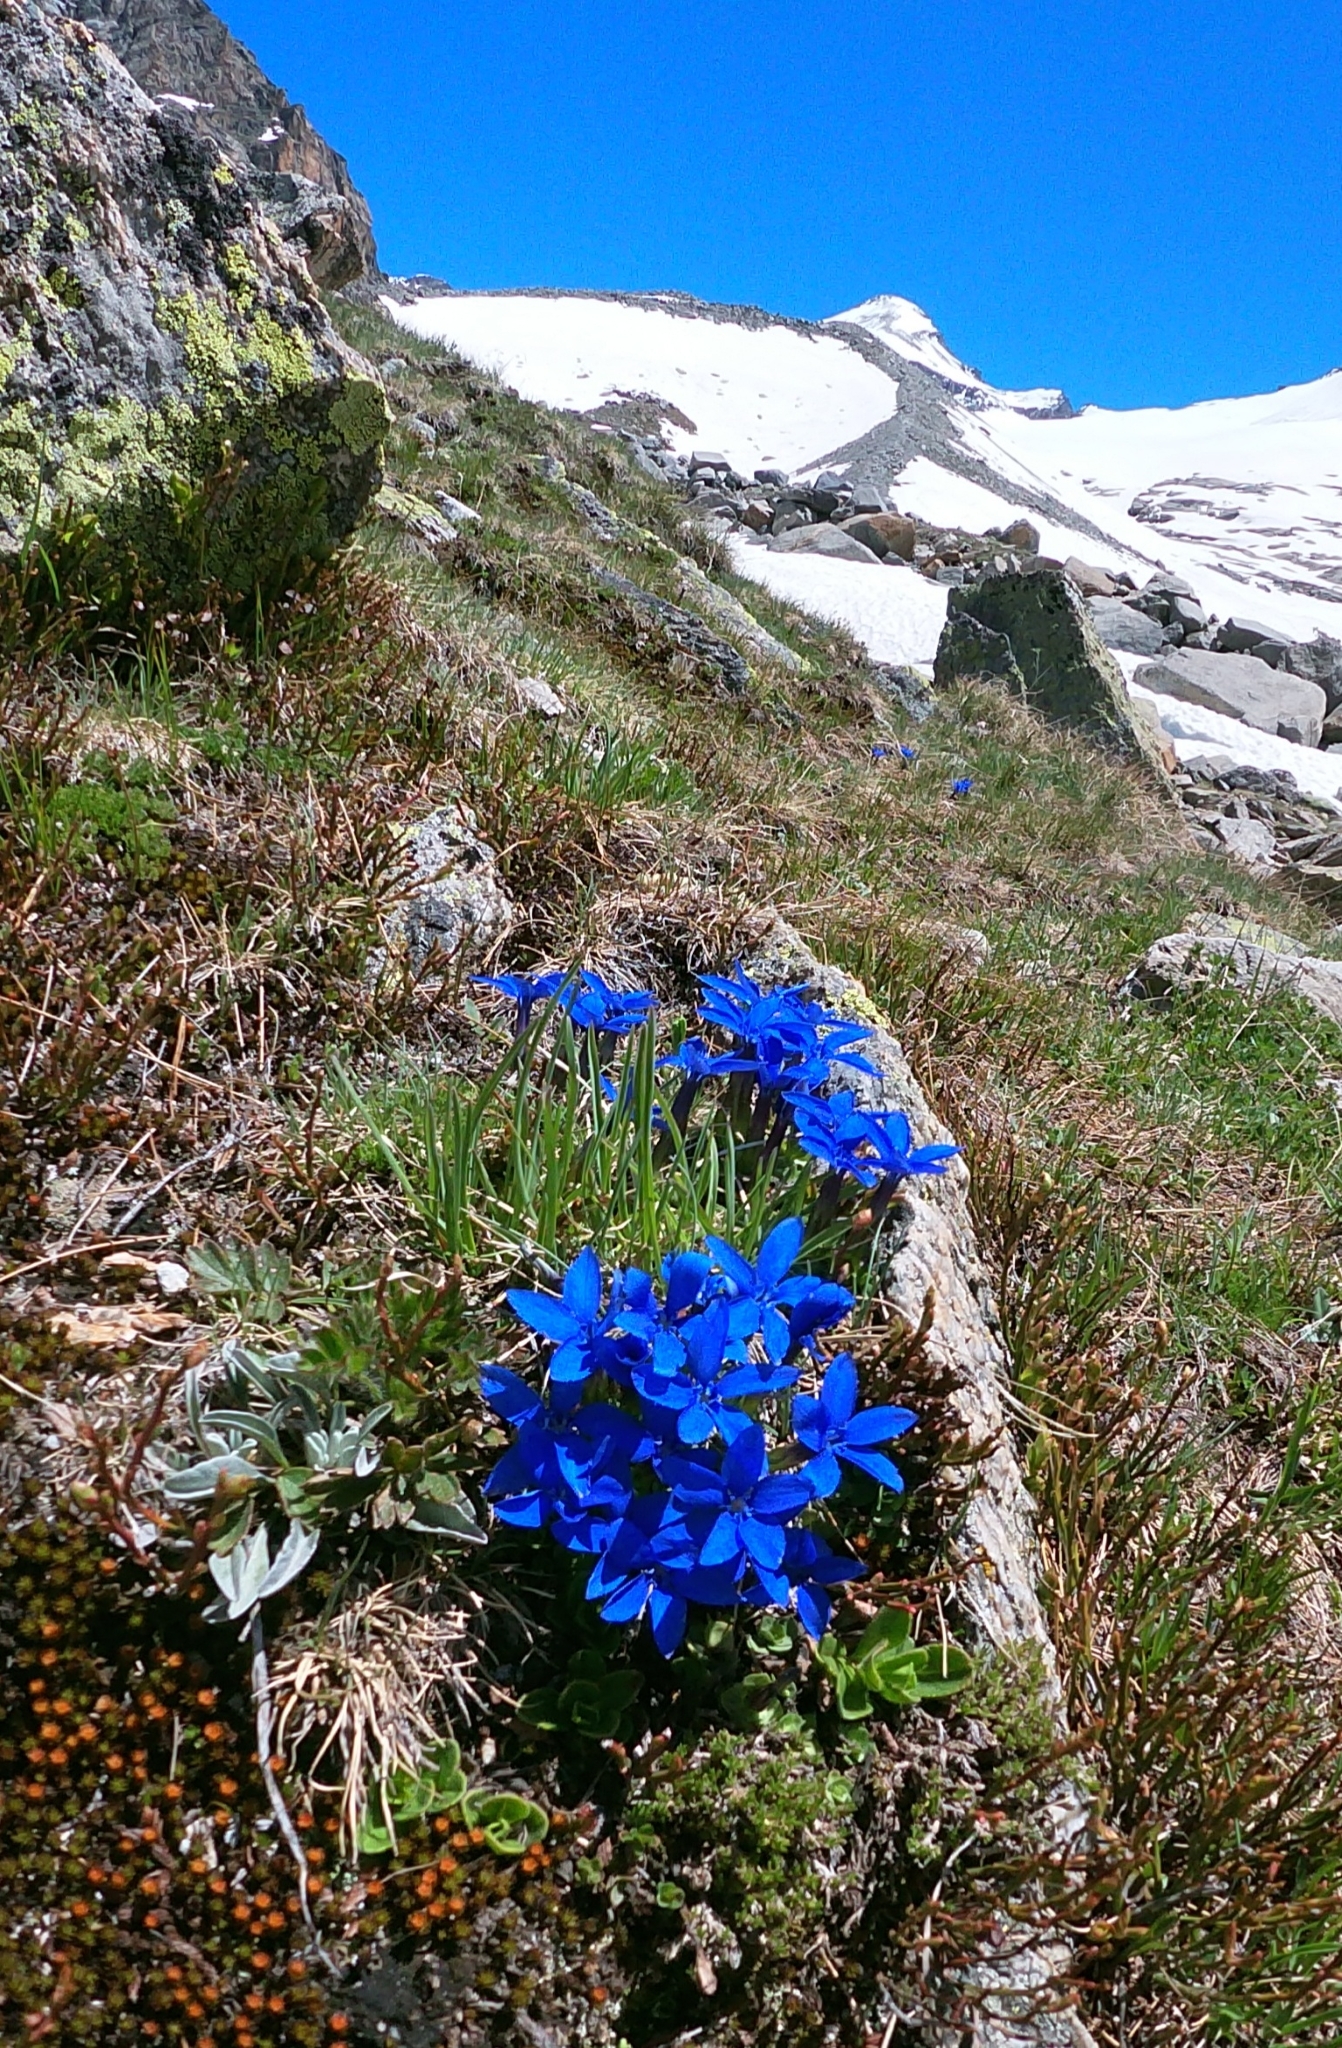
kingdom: Plantae
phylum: Tracheophyta
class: Magnoliopsida
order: Gentianales
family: Gentianaceae
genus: Gentiana
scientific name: Gentiana orbicularis
